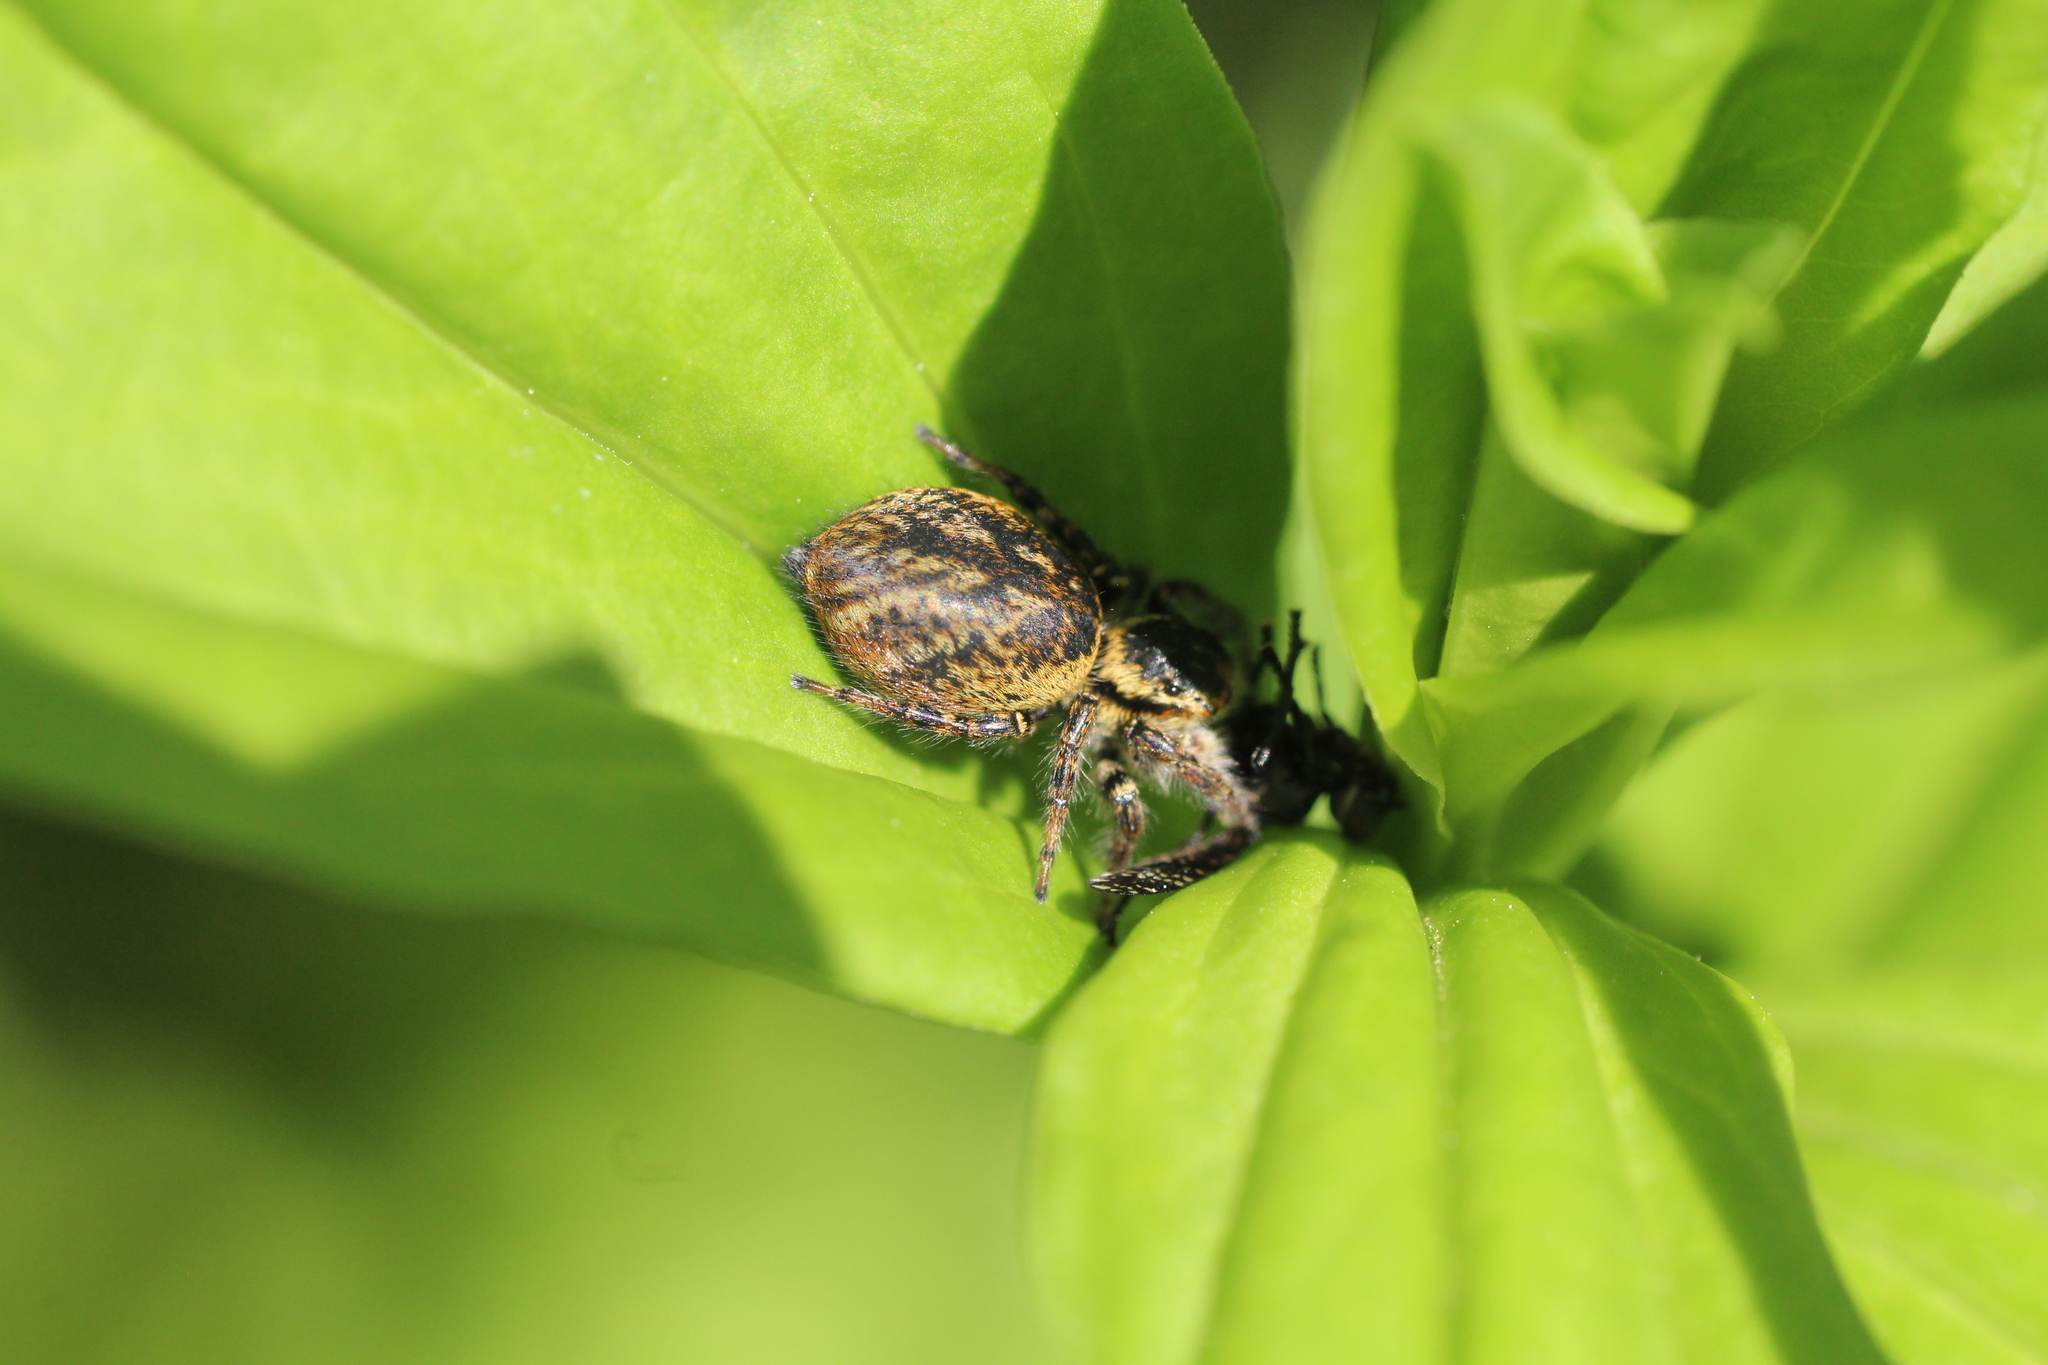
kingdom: Animalia
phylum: Arthropoda
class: Arachnida
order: Araneae
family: Salticidae
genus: Carrhotus
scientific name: Carrhotus xanthogramma
